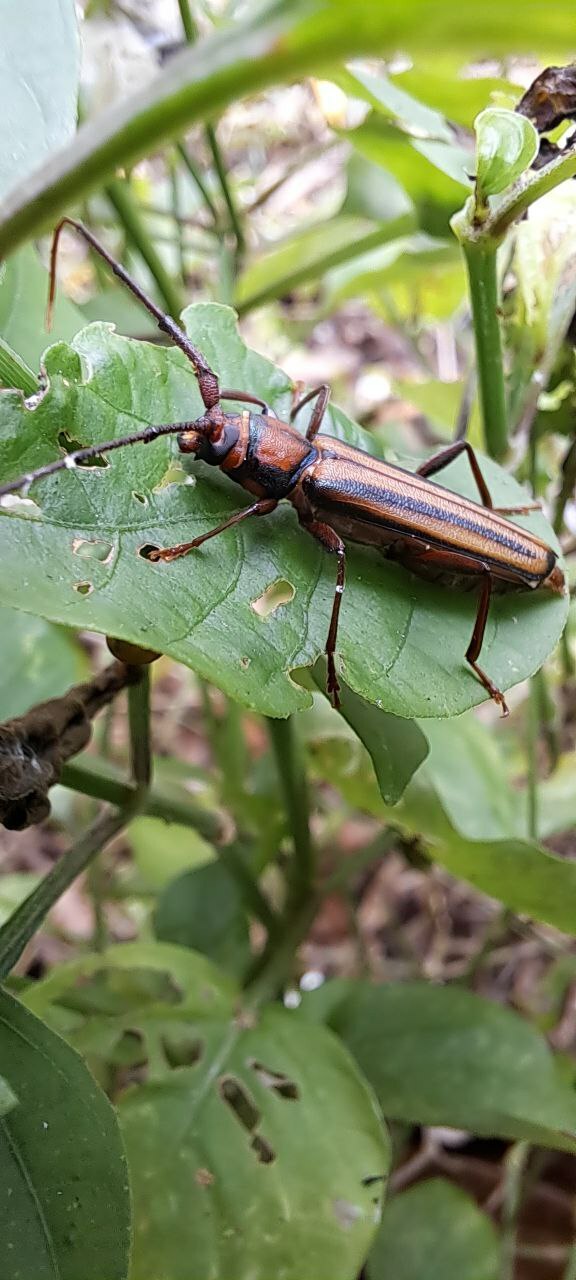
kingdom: Animalia
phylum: Arthropoda
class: Insecta
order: Coleoptera
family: Cerambycidae
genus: Xystrocera
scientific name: Xystrocera globosa
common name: Peach-tree longhorn
